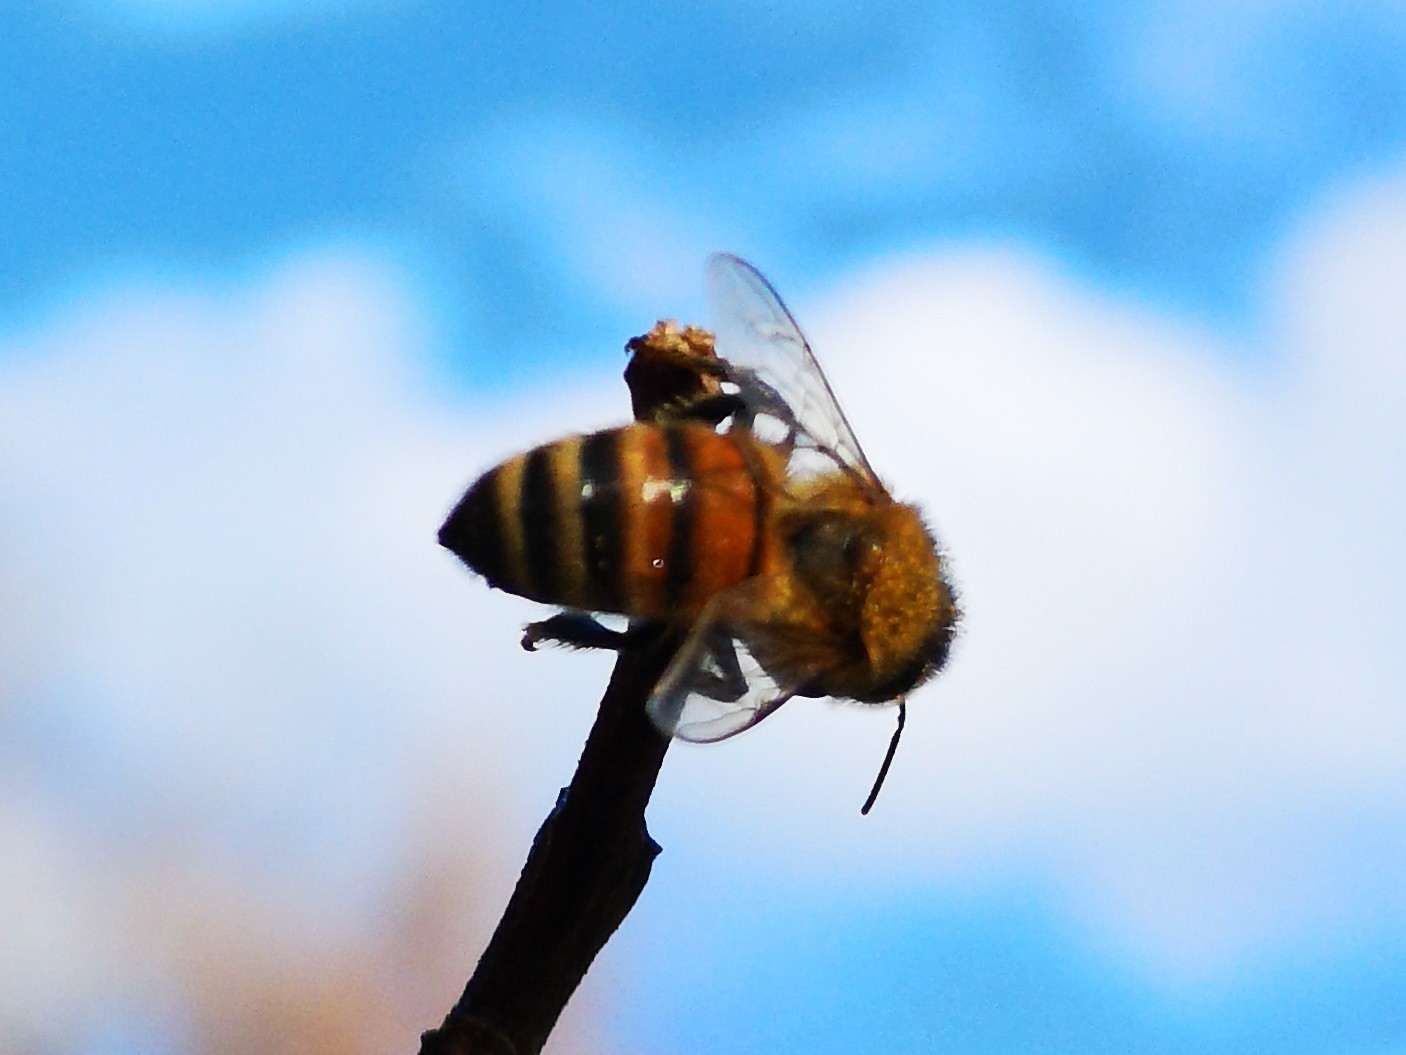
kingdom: Animalia
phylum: Arthropoda
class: Insecta
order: Hymenoptera
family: Apidae
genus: Apis
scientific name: Apis mellifera
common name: Honey bee
